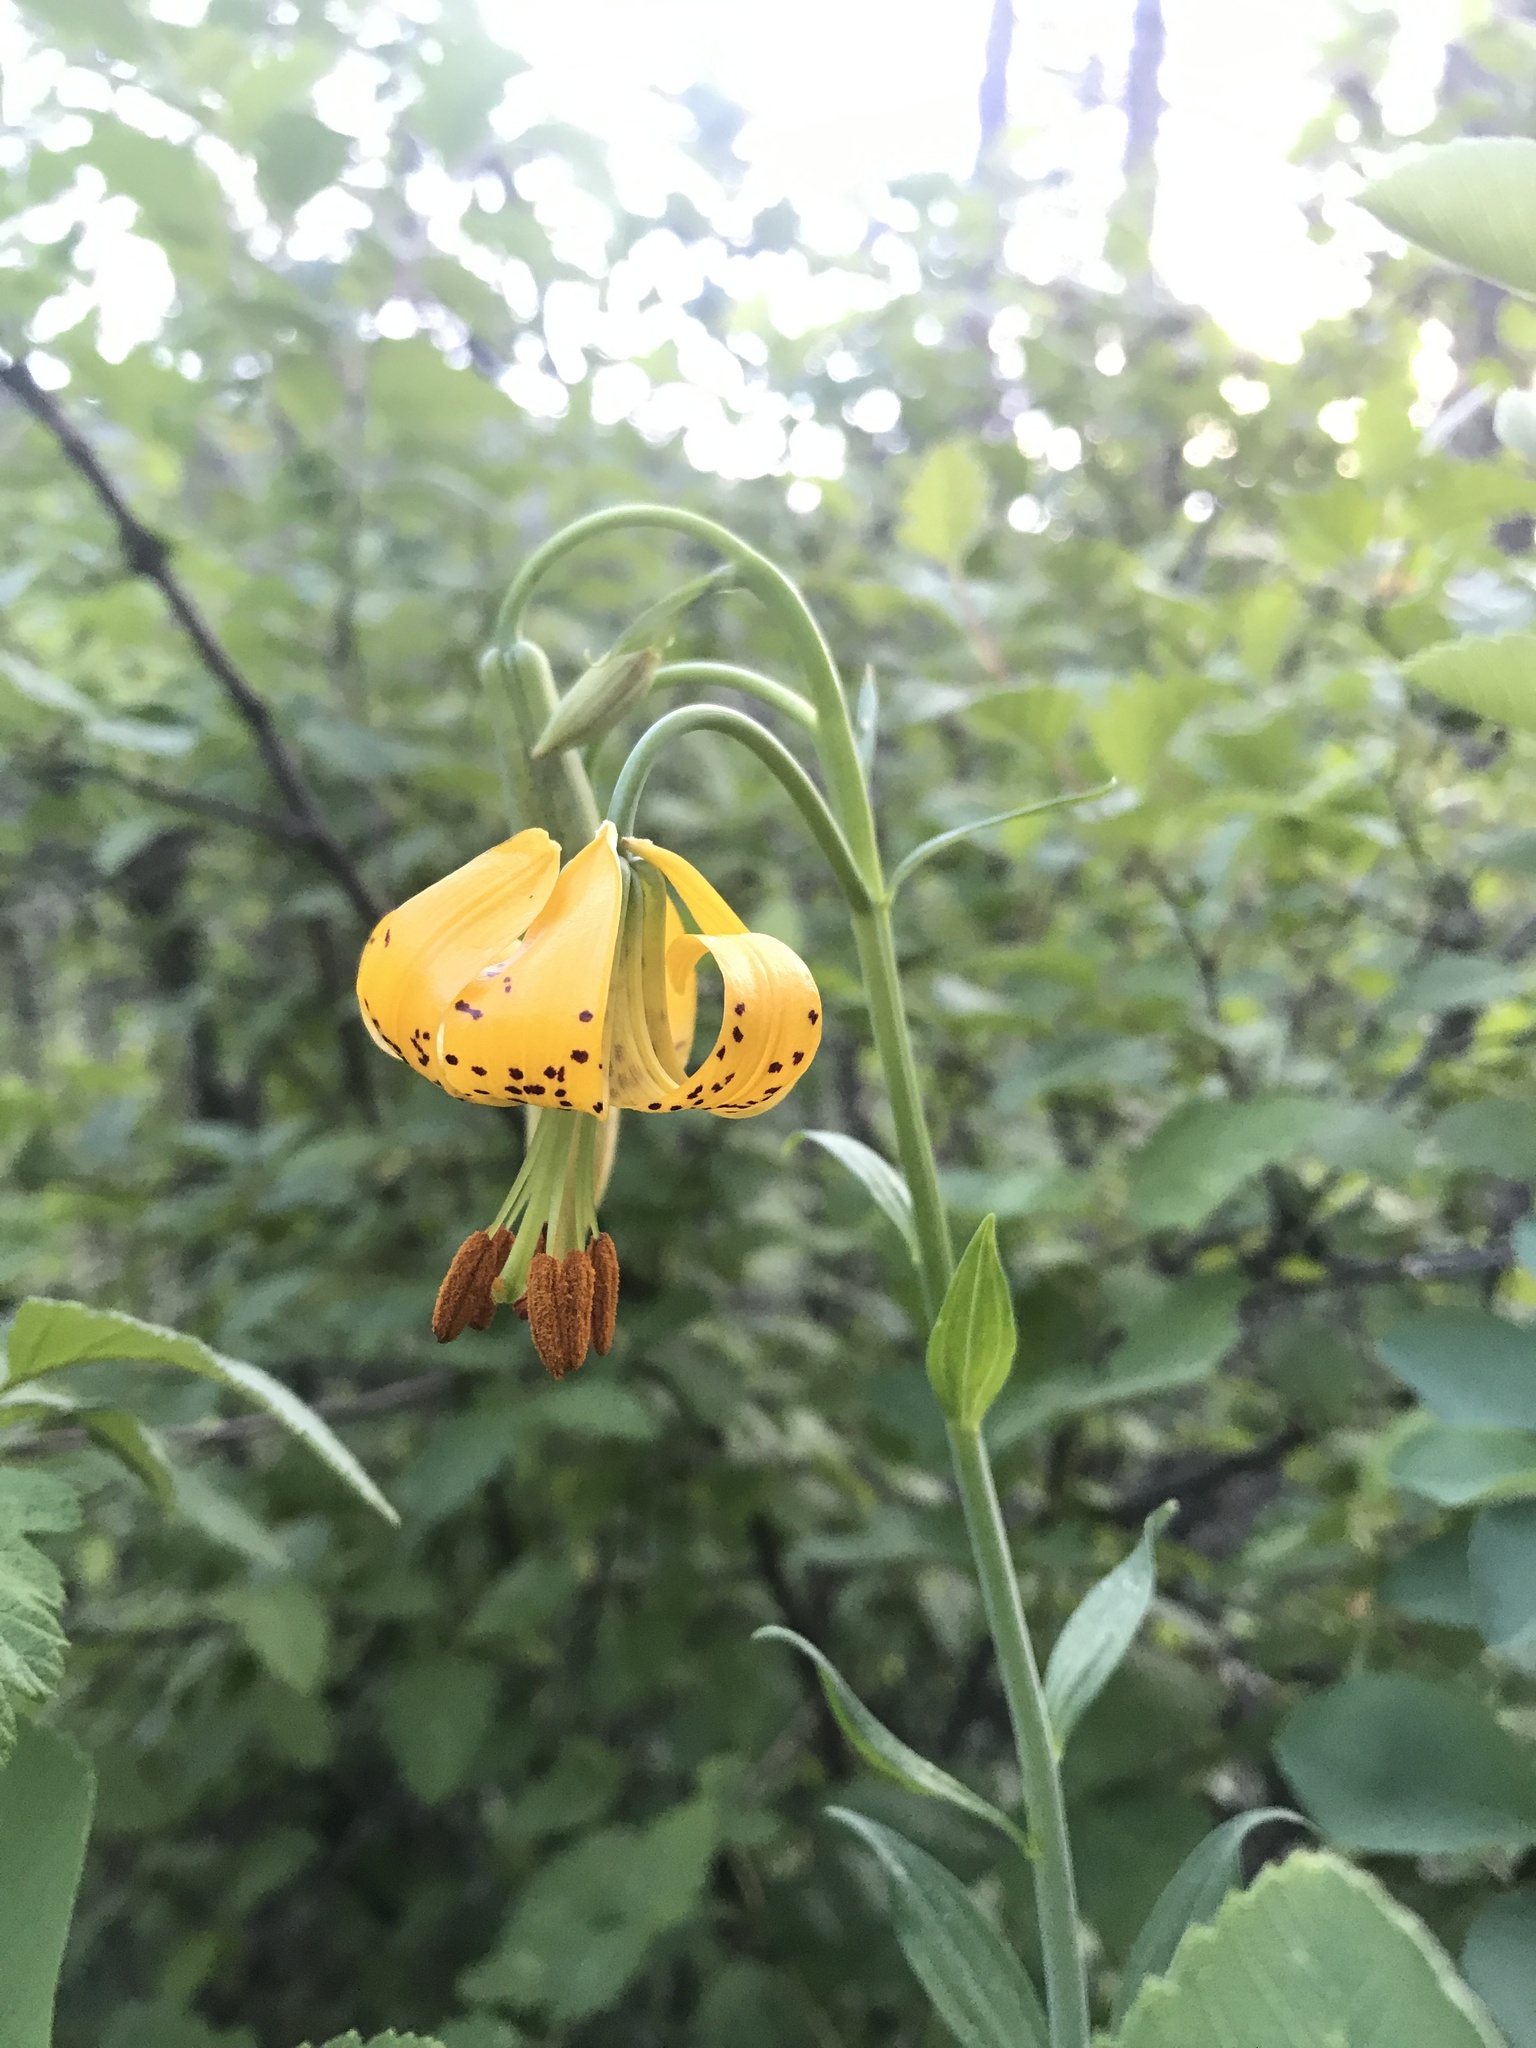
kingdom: Plantae
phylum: Tracheophyta
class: Liliopsida
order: Liliales
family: Liliaceae
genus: Lilium
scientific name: Lilium columbianum
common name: Columbia lily
